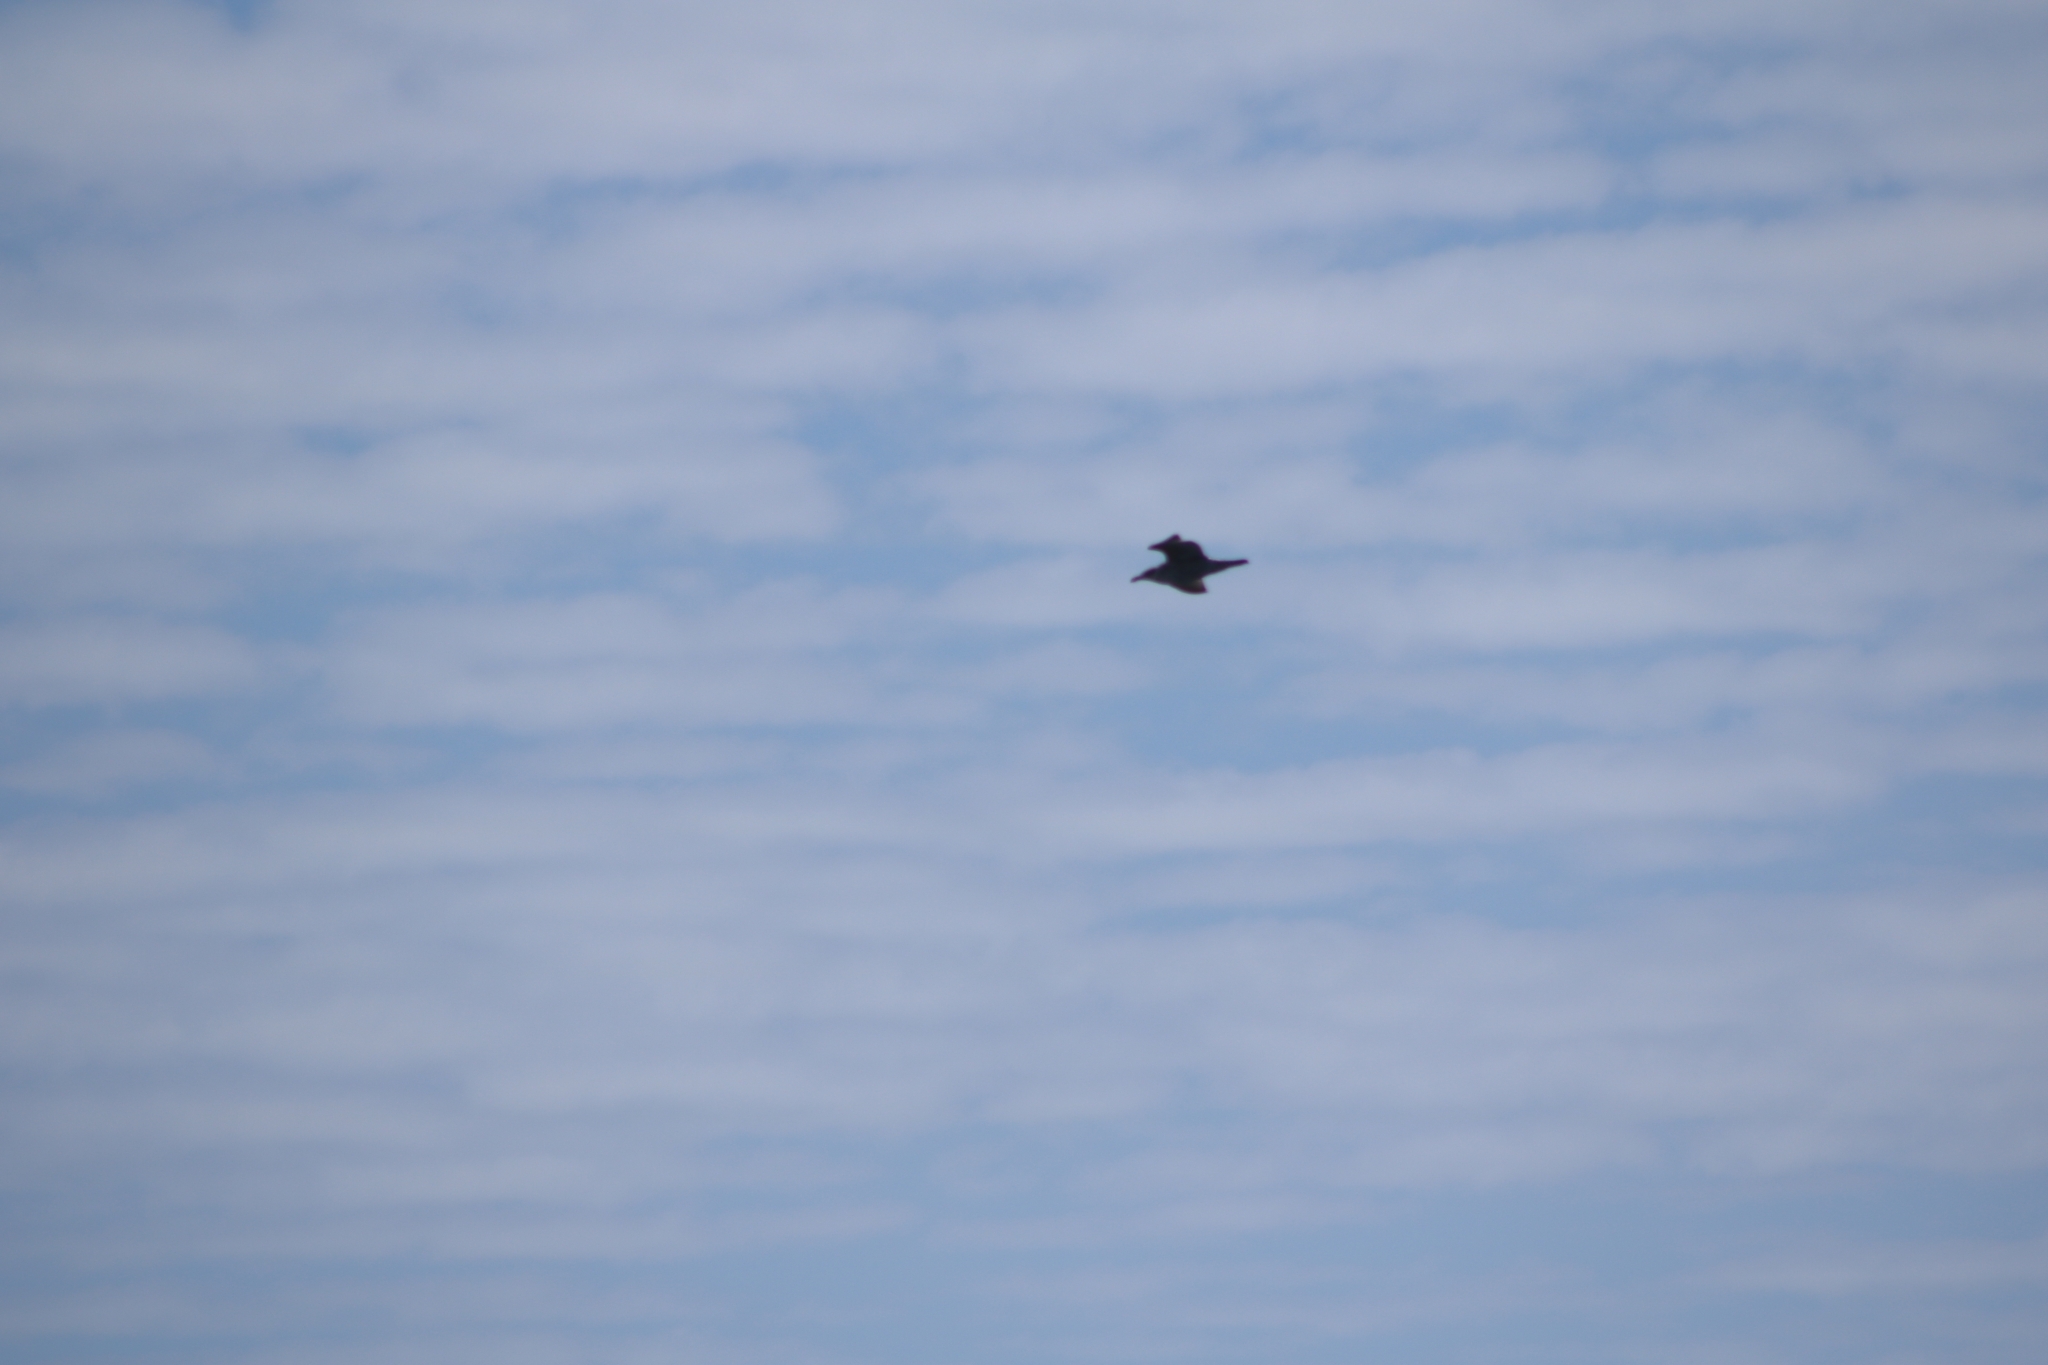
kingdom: Animalia
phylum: Chordata
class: Aves
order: Charadriiformes
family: Laridae
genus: Larus
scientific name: Larus dominicanus
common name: Kelp gull
